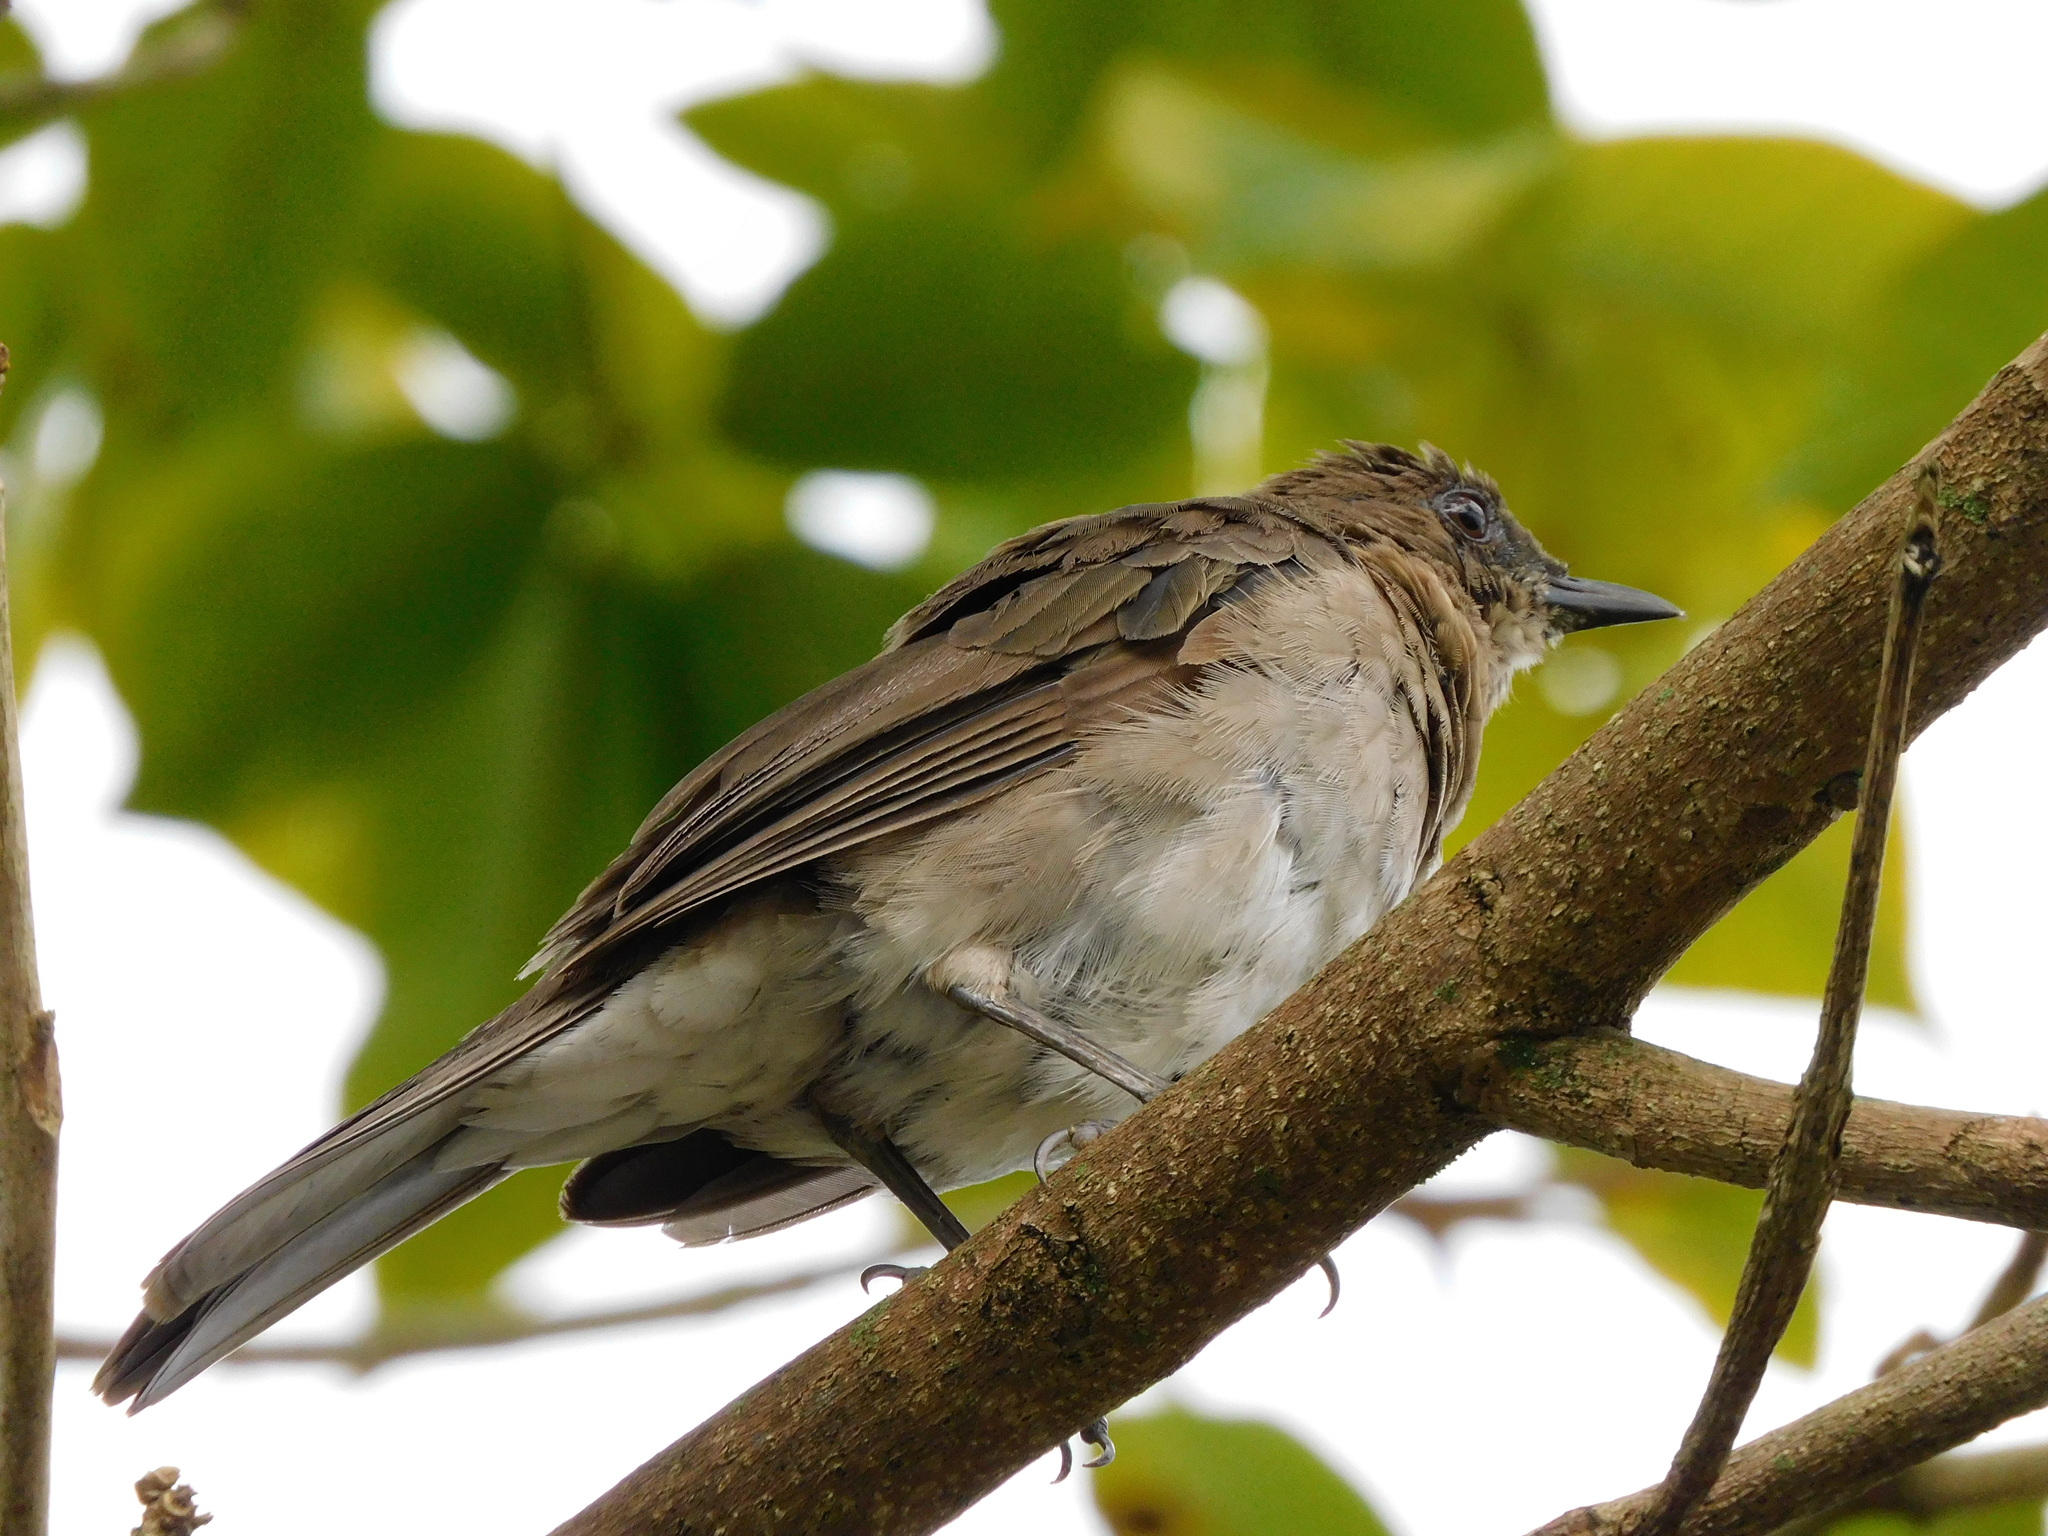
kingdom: Animalia
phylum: Chordata
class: Aves
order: Passeriformes
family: Turdidae
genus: Turdus
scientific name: Turdus ignobilis
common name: Black-billed thrush
